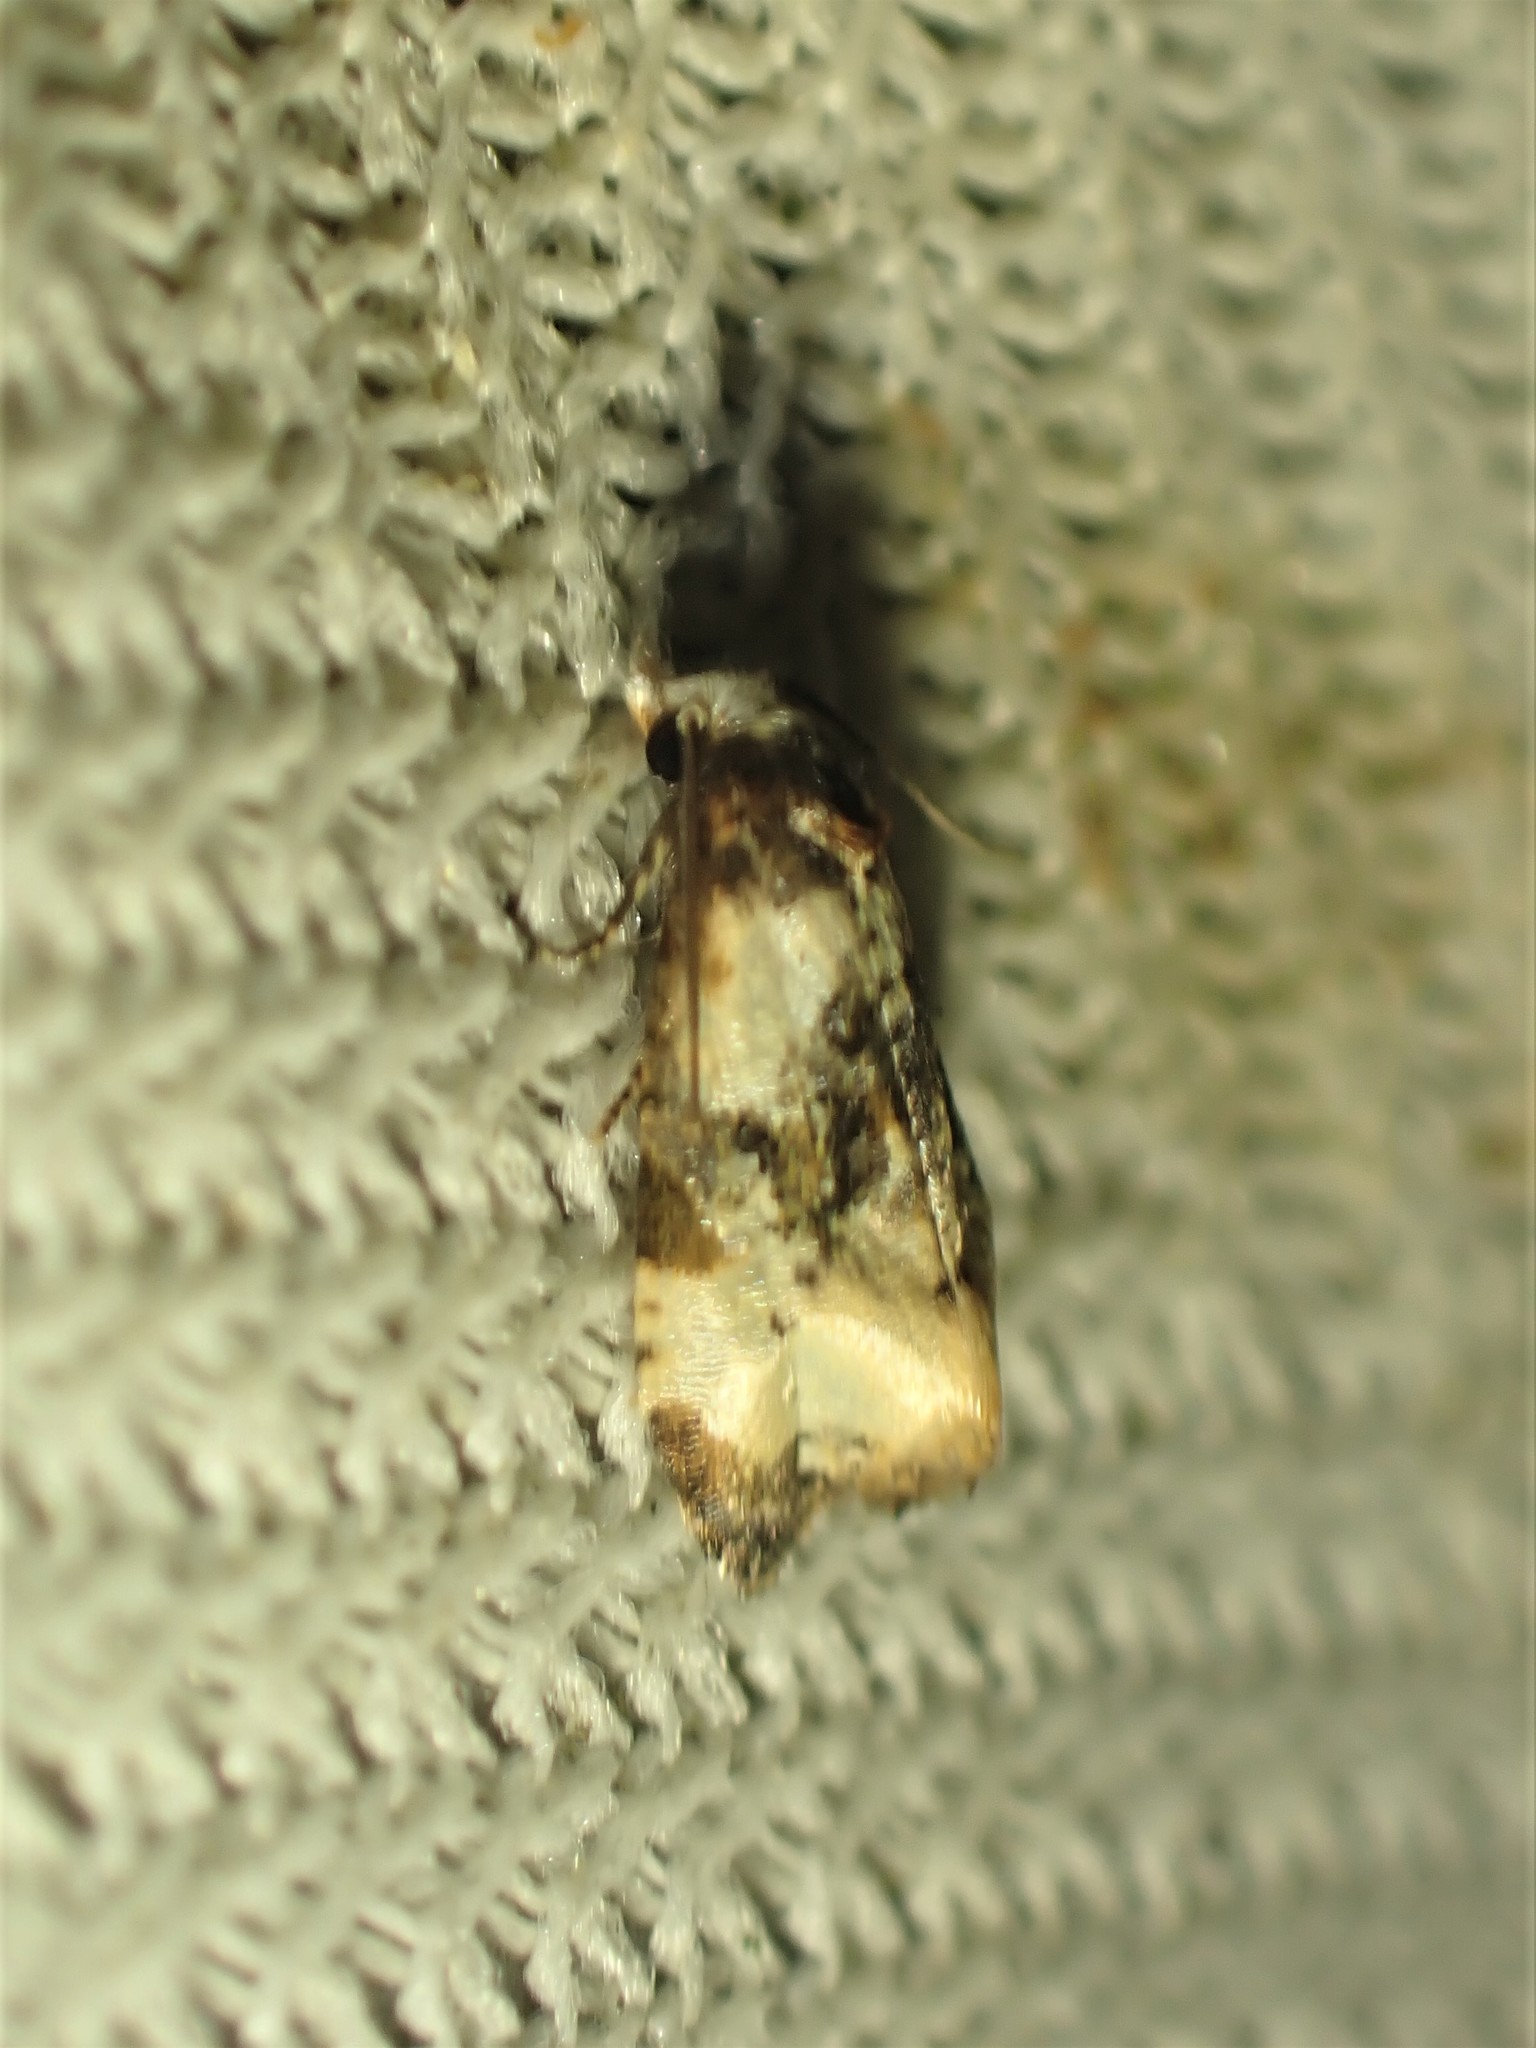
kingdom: Animalia
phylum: Arthropoda
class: Insecta
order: Lepidoptera
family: Tortricidae
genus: Phalonidia
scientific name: Phalonidia memoranda
